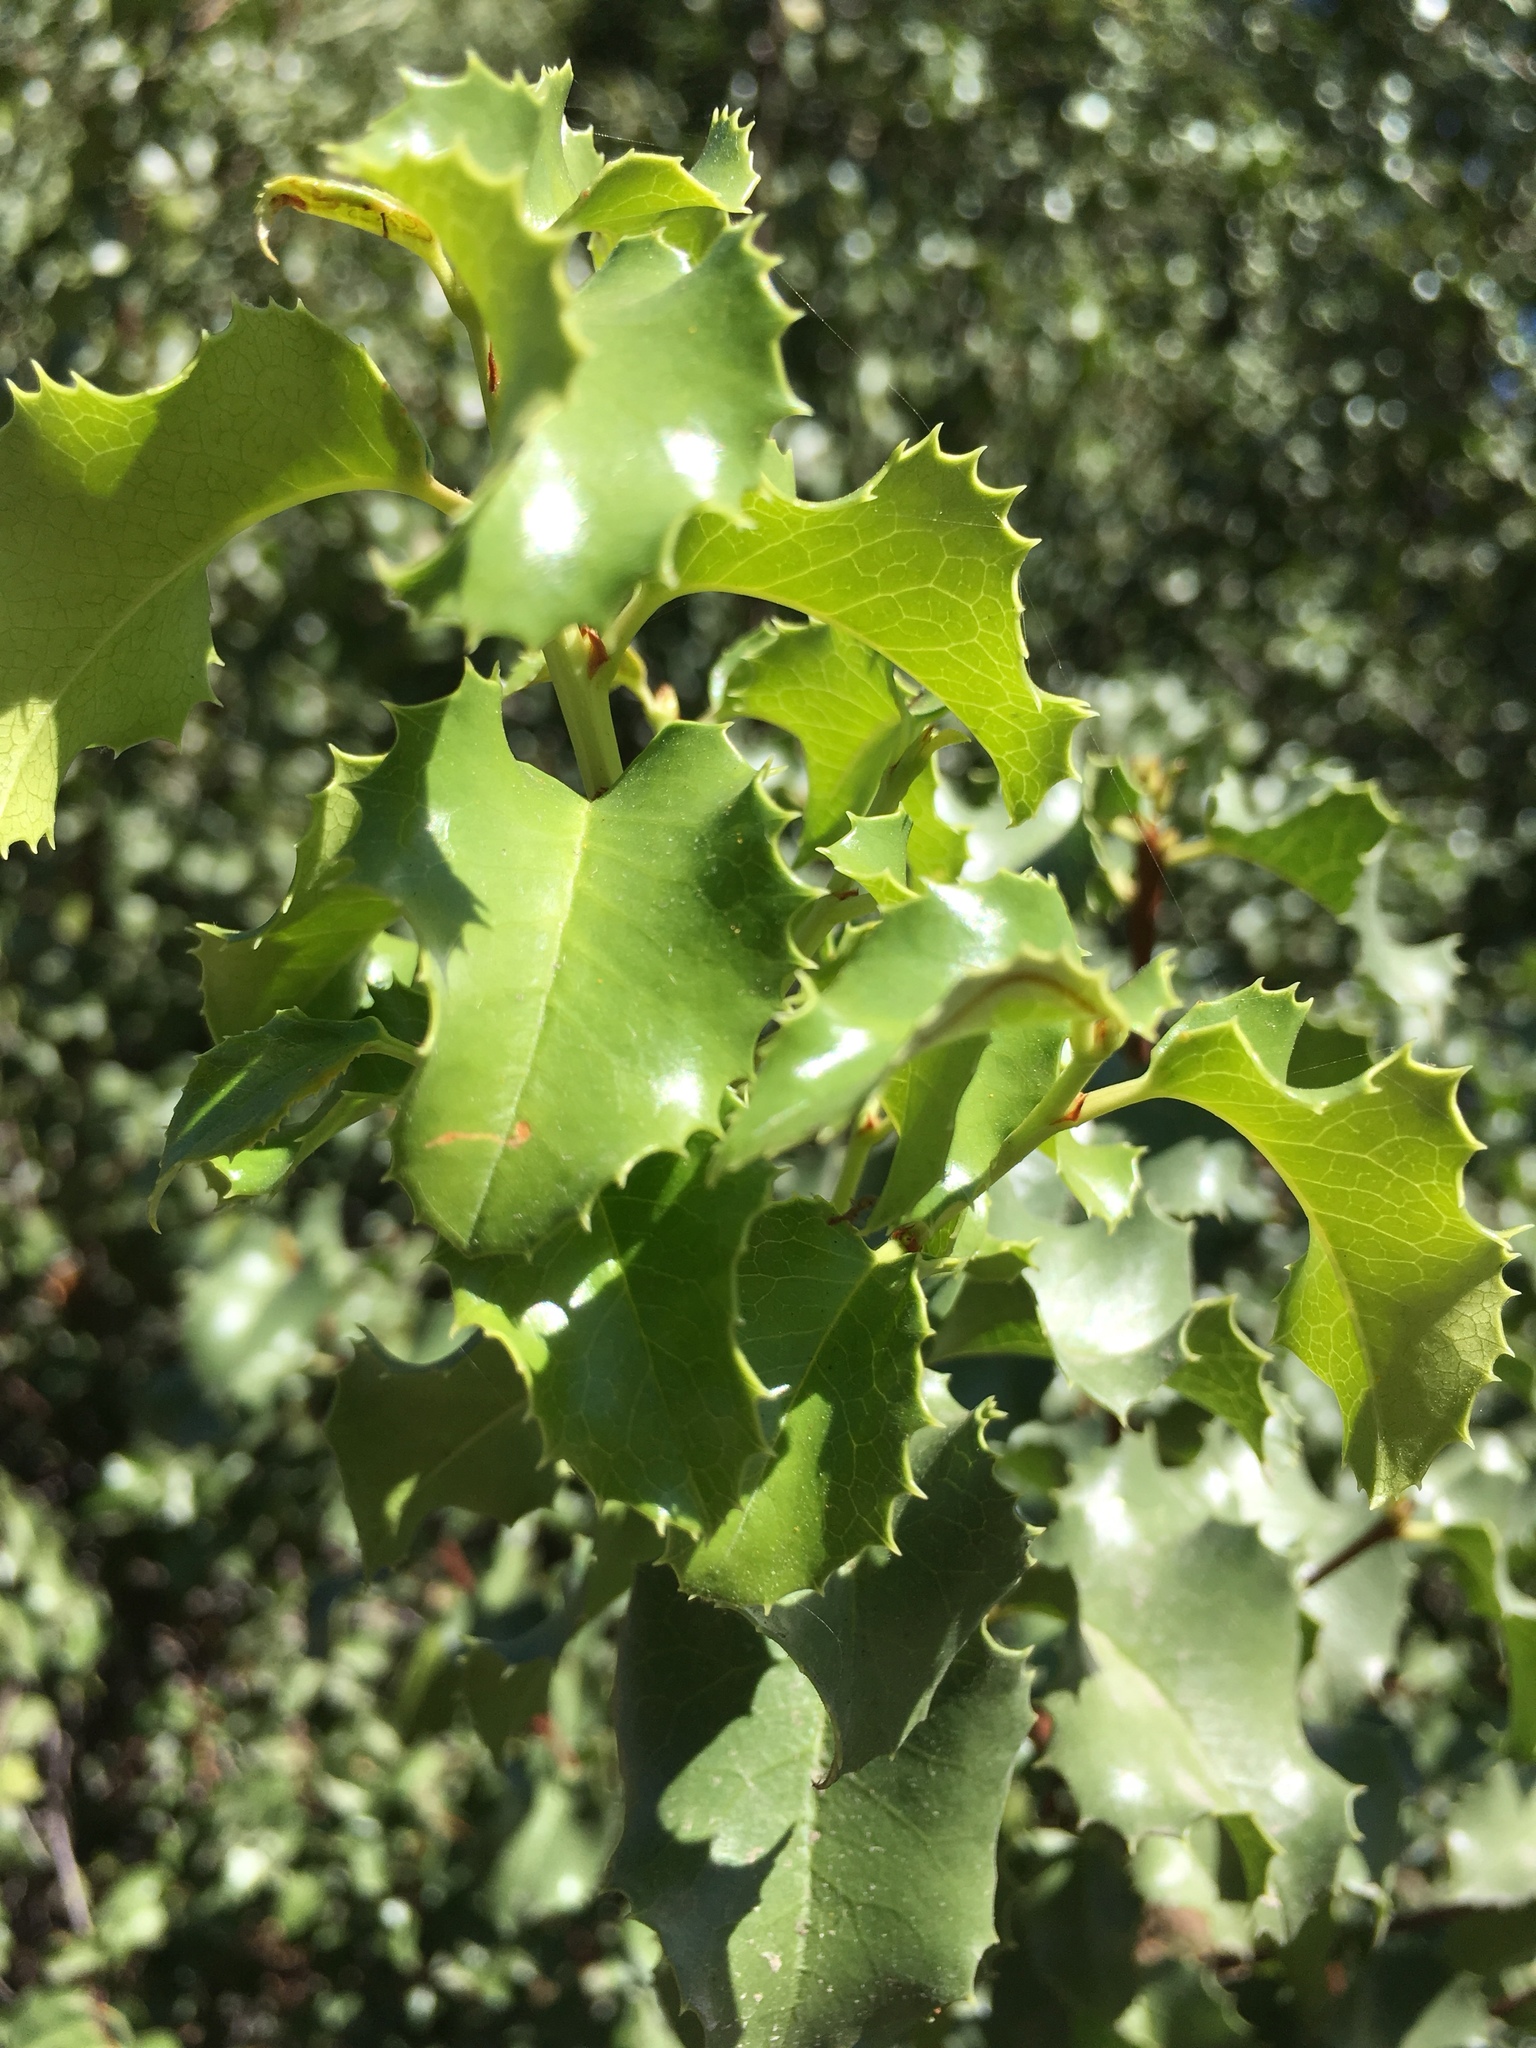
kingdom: Plantae
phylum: Tracheophyta
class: Magnoliopsida
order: Rosales
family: Rosaceae
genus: Prunus
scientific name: Prunus ilicifolia
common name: Hollyleaf cherry
